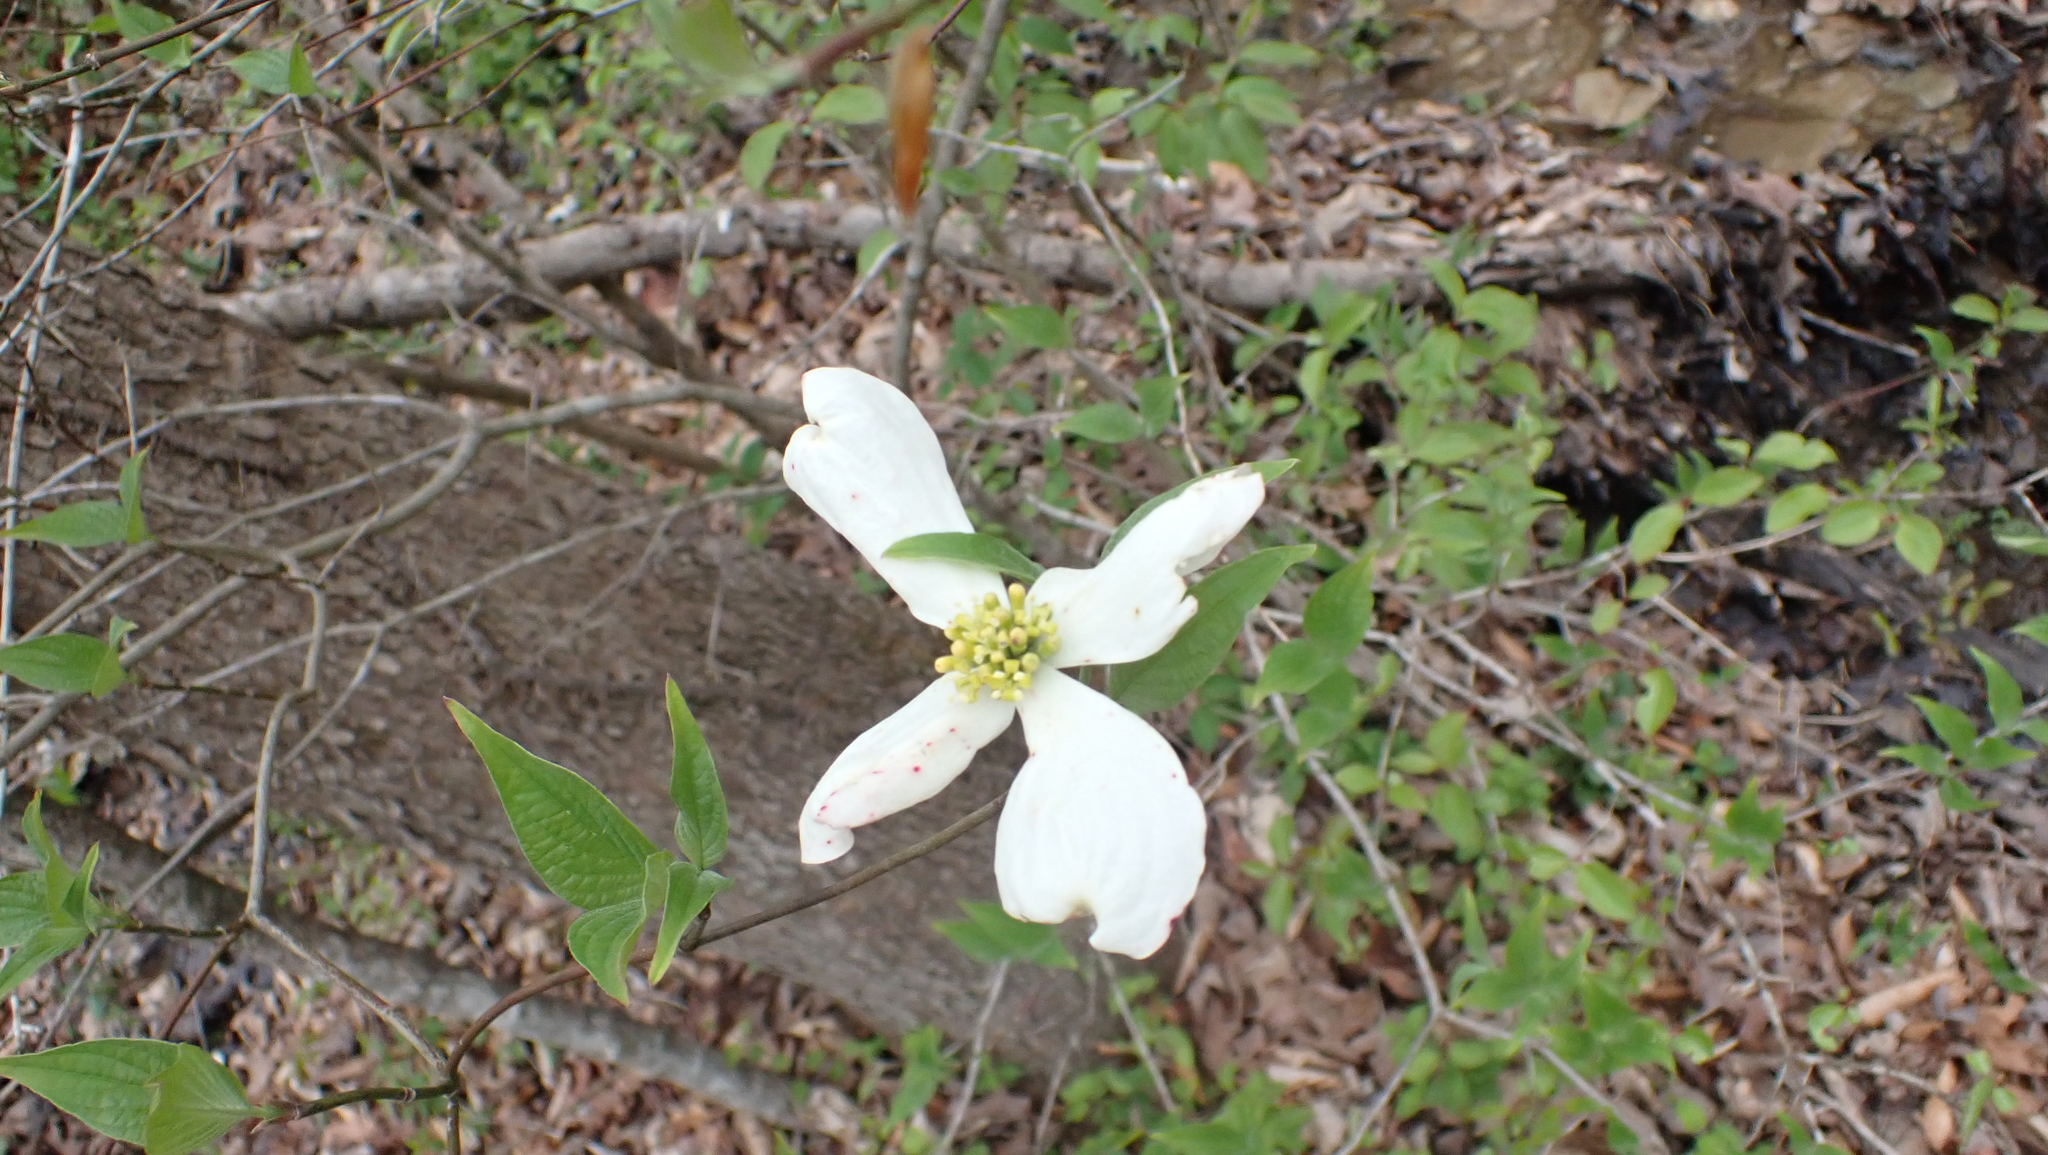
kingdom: Plantae
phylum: Tracheophyta
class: Magnoliopsida
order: Cornales
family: Cornaceae
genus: Cornus
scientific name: Cornus florida
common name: Flowering dogwood
